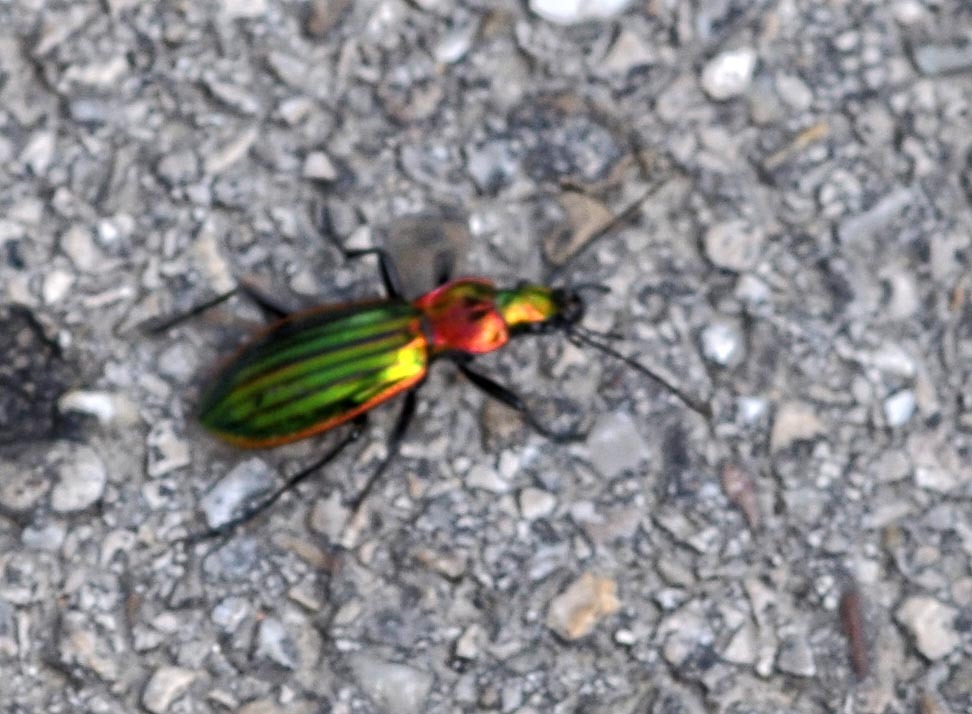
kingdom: Animalia
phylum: Arthropoda
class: Insecta
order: Coleoptera
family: Carabidae
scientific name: Carabidae
